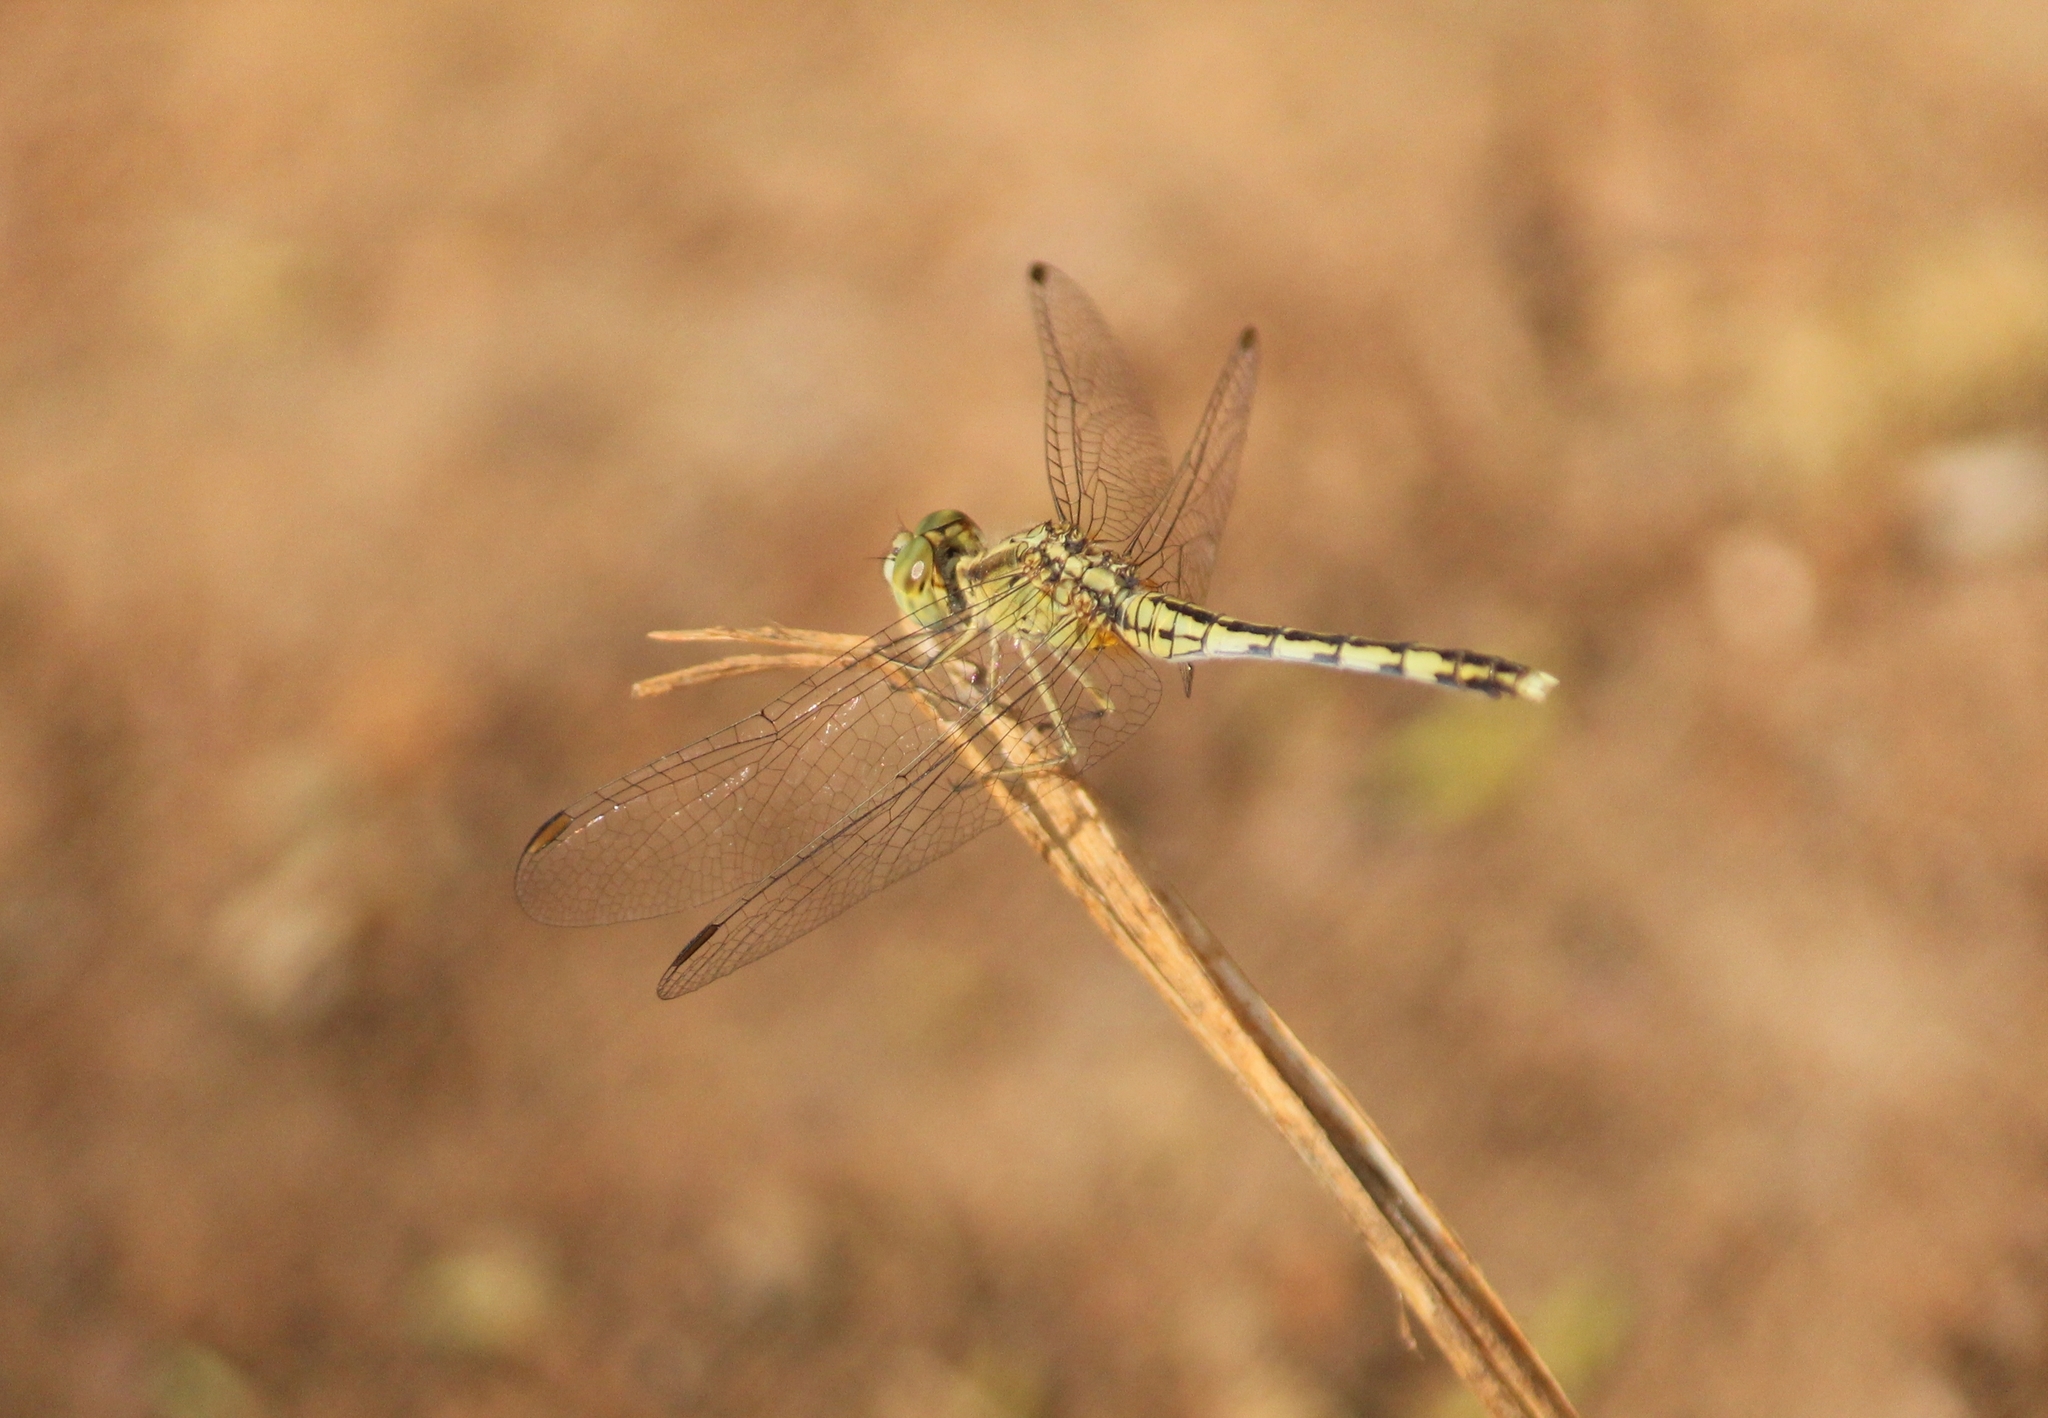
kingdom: Animalia
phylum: Arthropoda
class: Insecta
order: Odonata
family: Libellulidae
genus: Diplacodes
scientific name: Diplacodes trivialis
